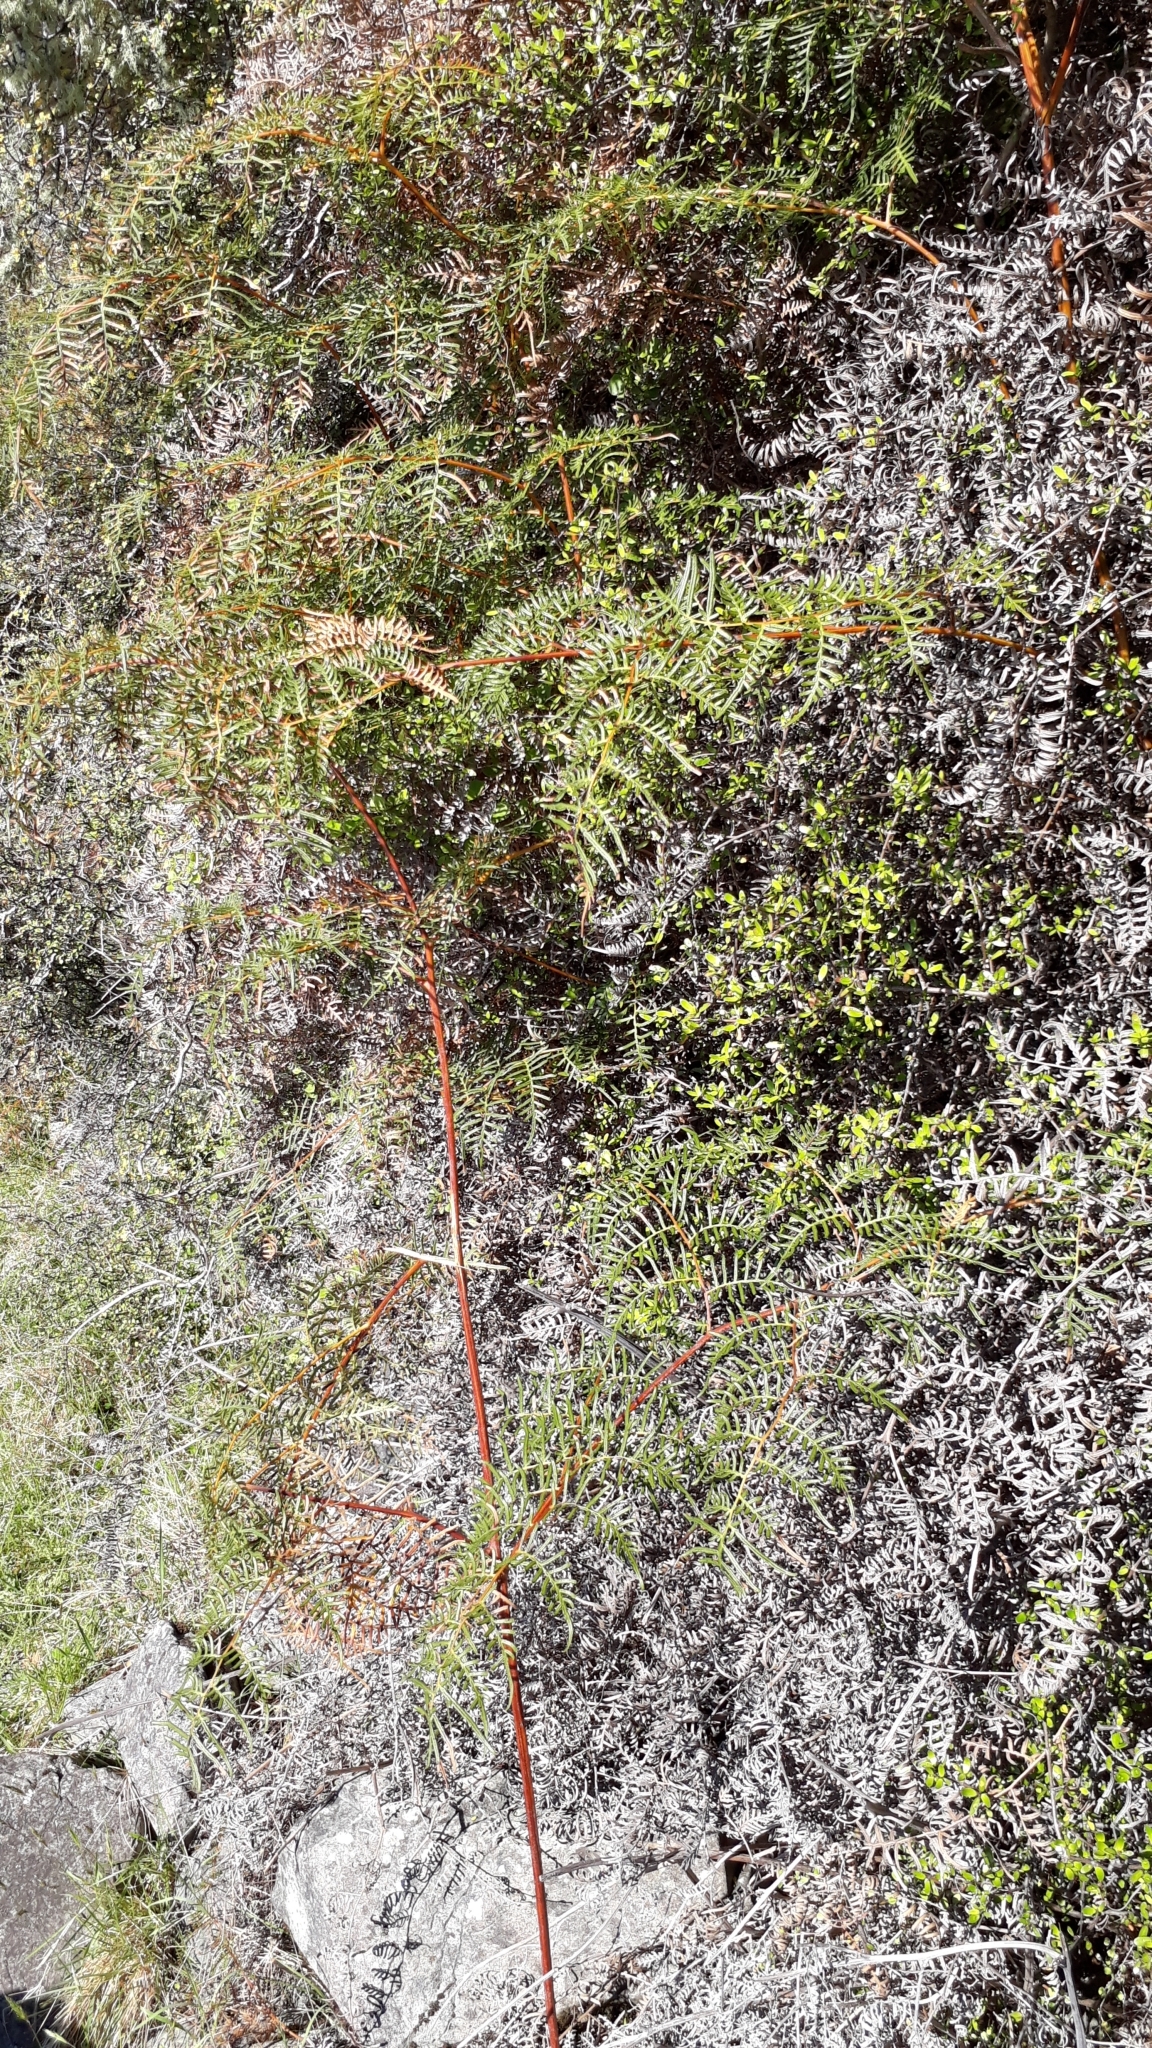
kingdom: Plantae
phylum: Tracheophyta
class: Polypodiopsida
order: Polypodiales
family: Dennstaedtiaceae
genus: Pteridium
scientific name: Pteridium esculentum
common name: Bracken fern
